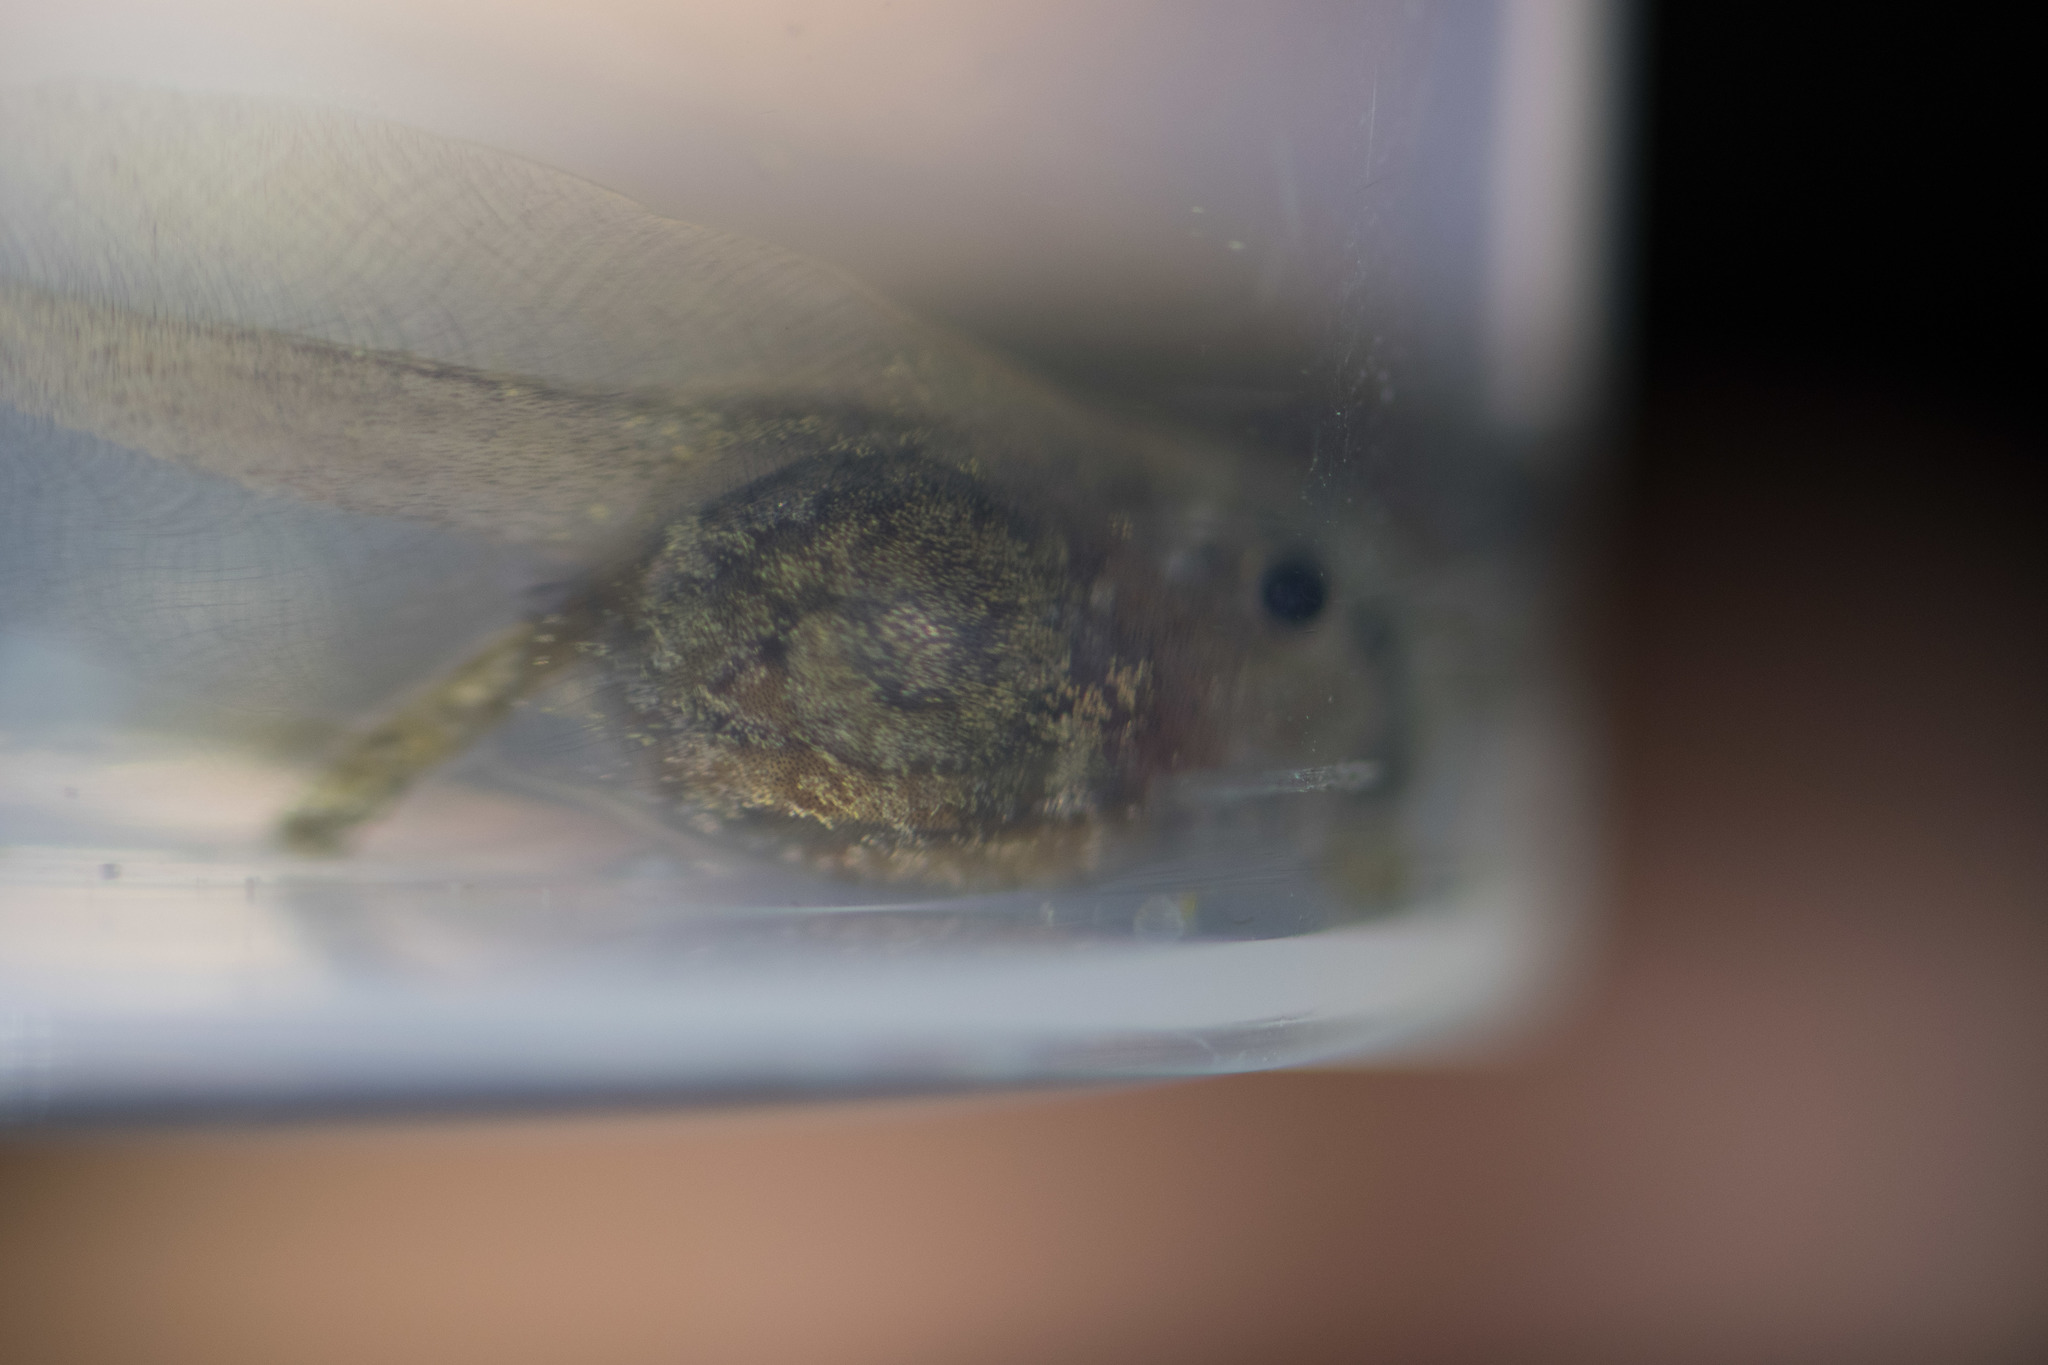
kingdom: Animalia
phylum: Chordata
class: Amphibia
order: Anura
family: Pelodytidae
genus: Pelodytes
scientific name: Pelodytes punctatus
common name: Parsley frog
